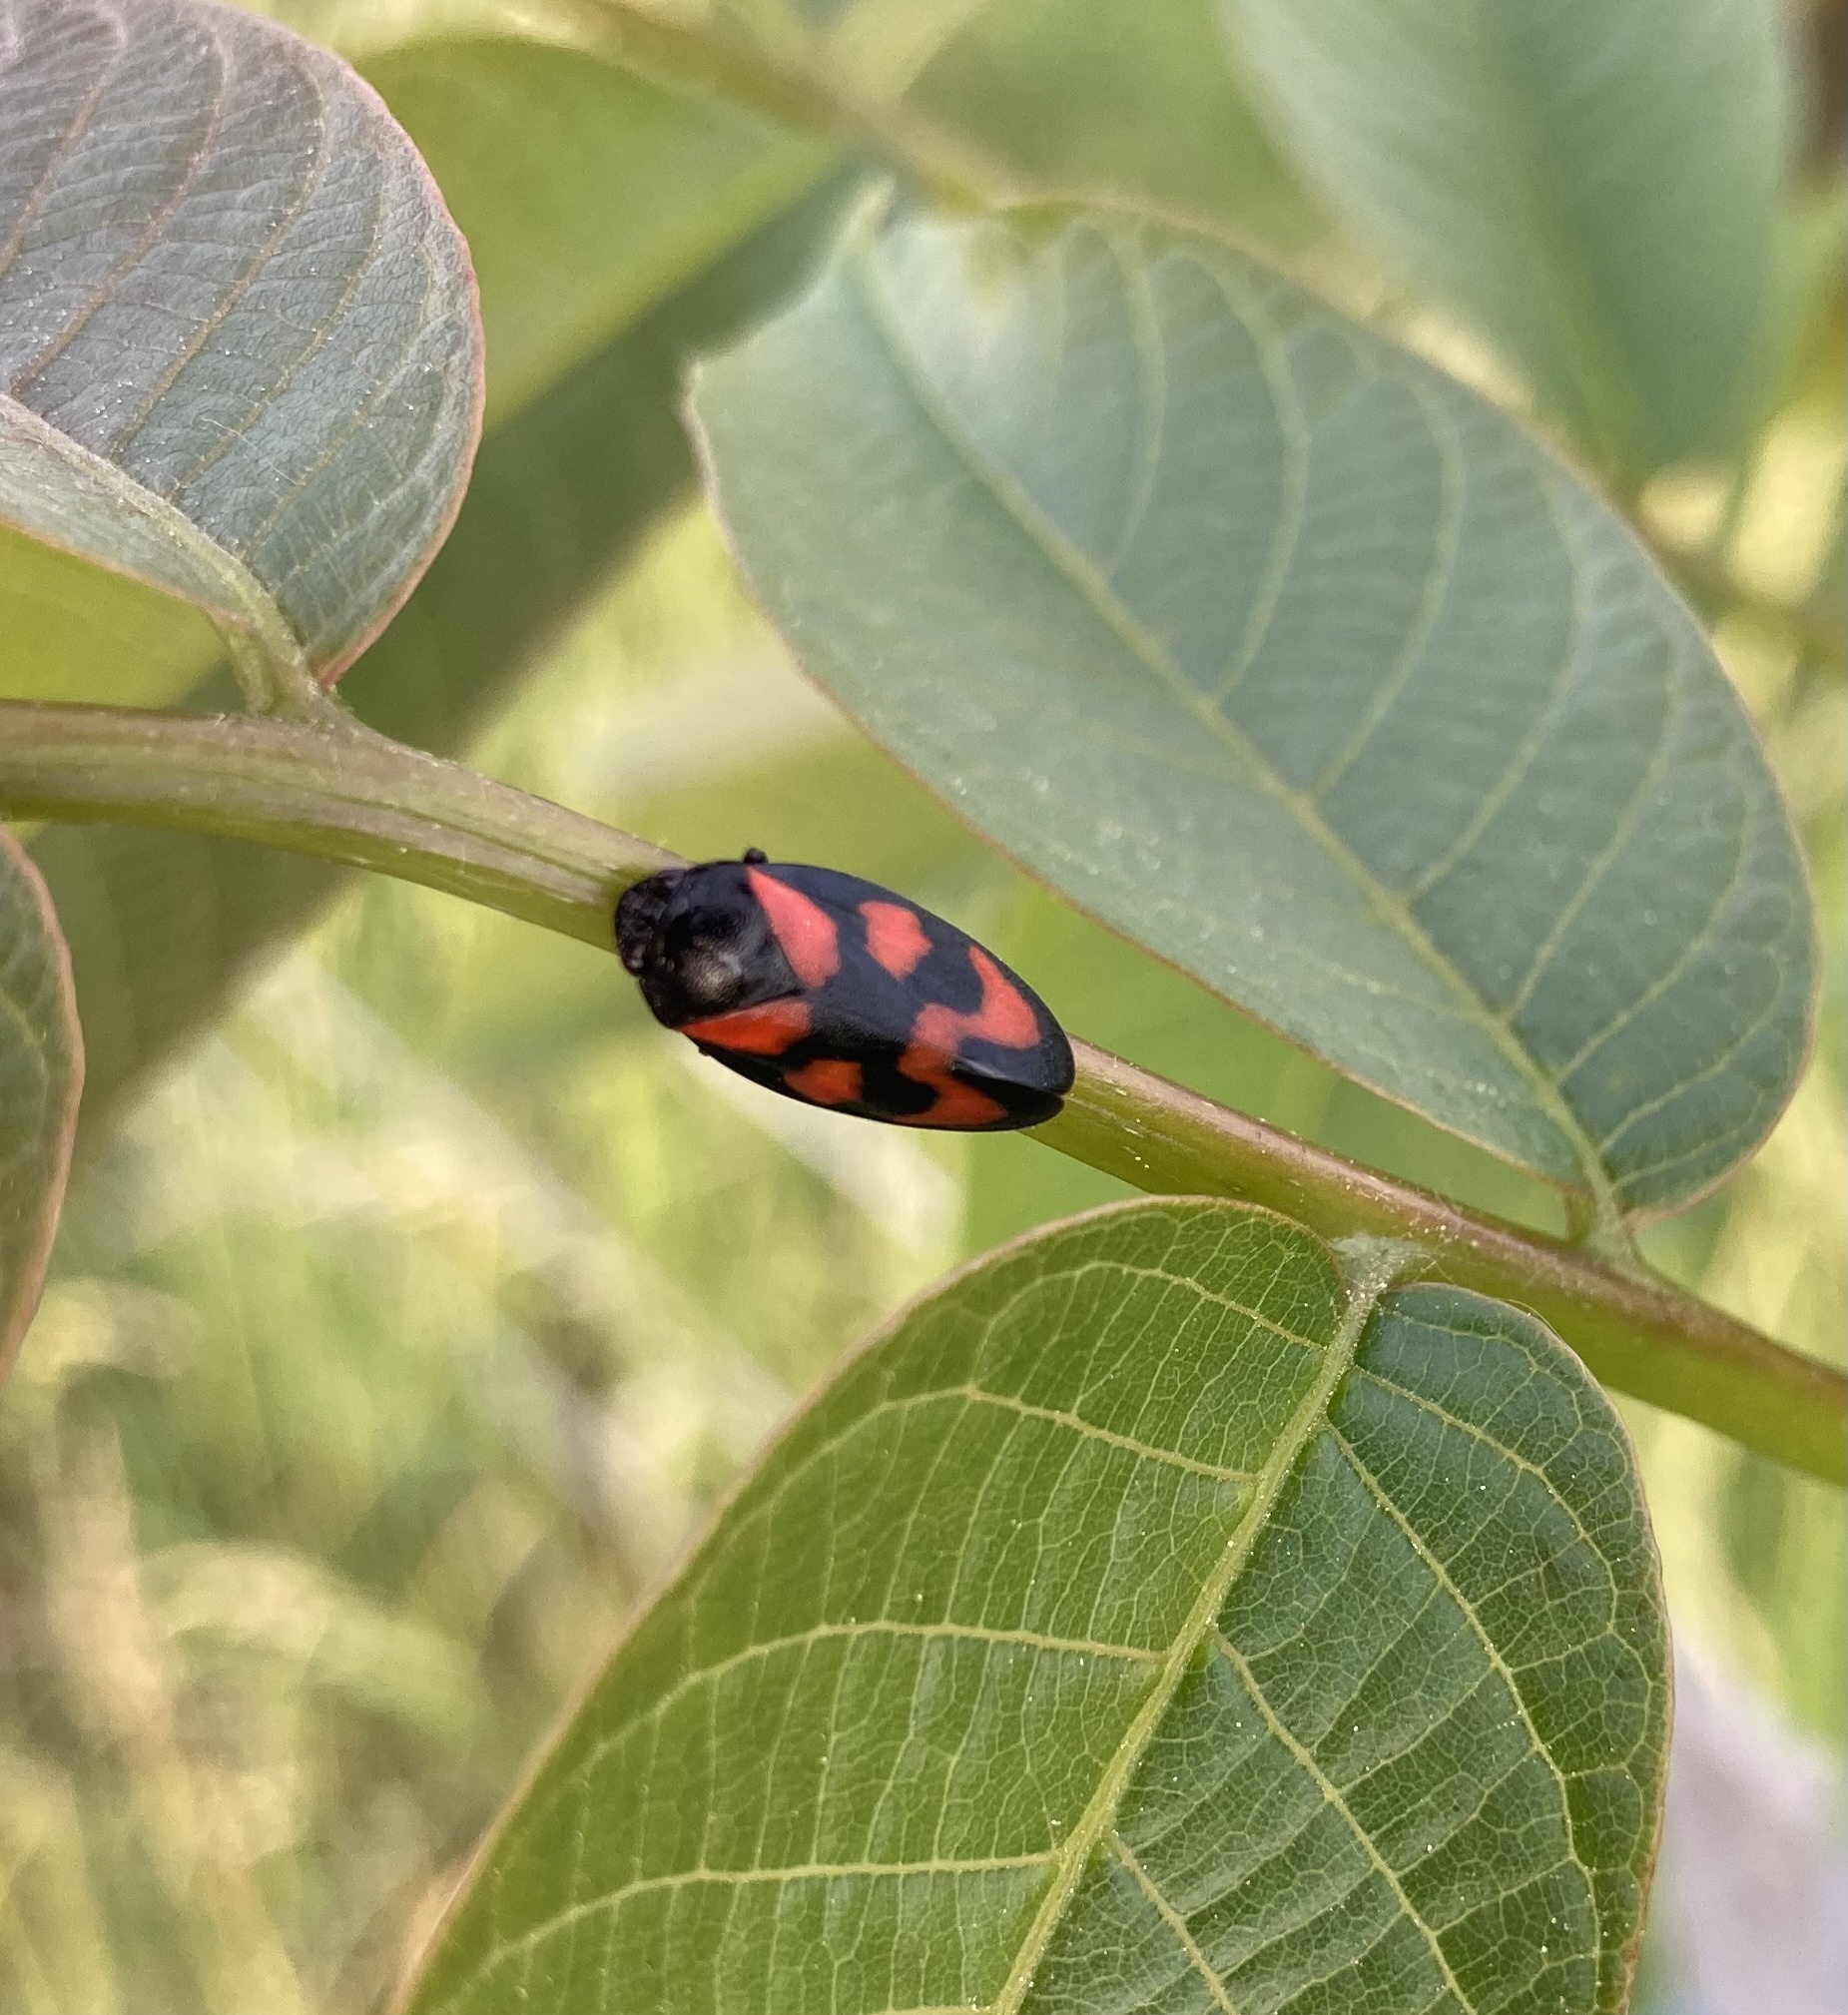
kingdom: Animalia
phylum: Arthropoda
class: Insecta
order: Hemiptera
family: Cercopidae
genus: Cercopis
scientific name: Cercopis vulnerata
